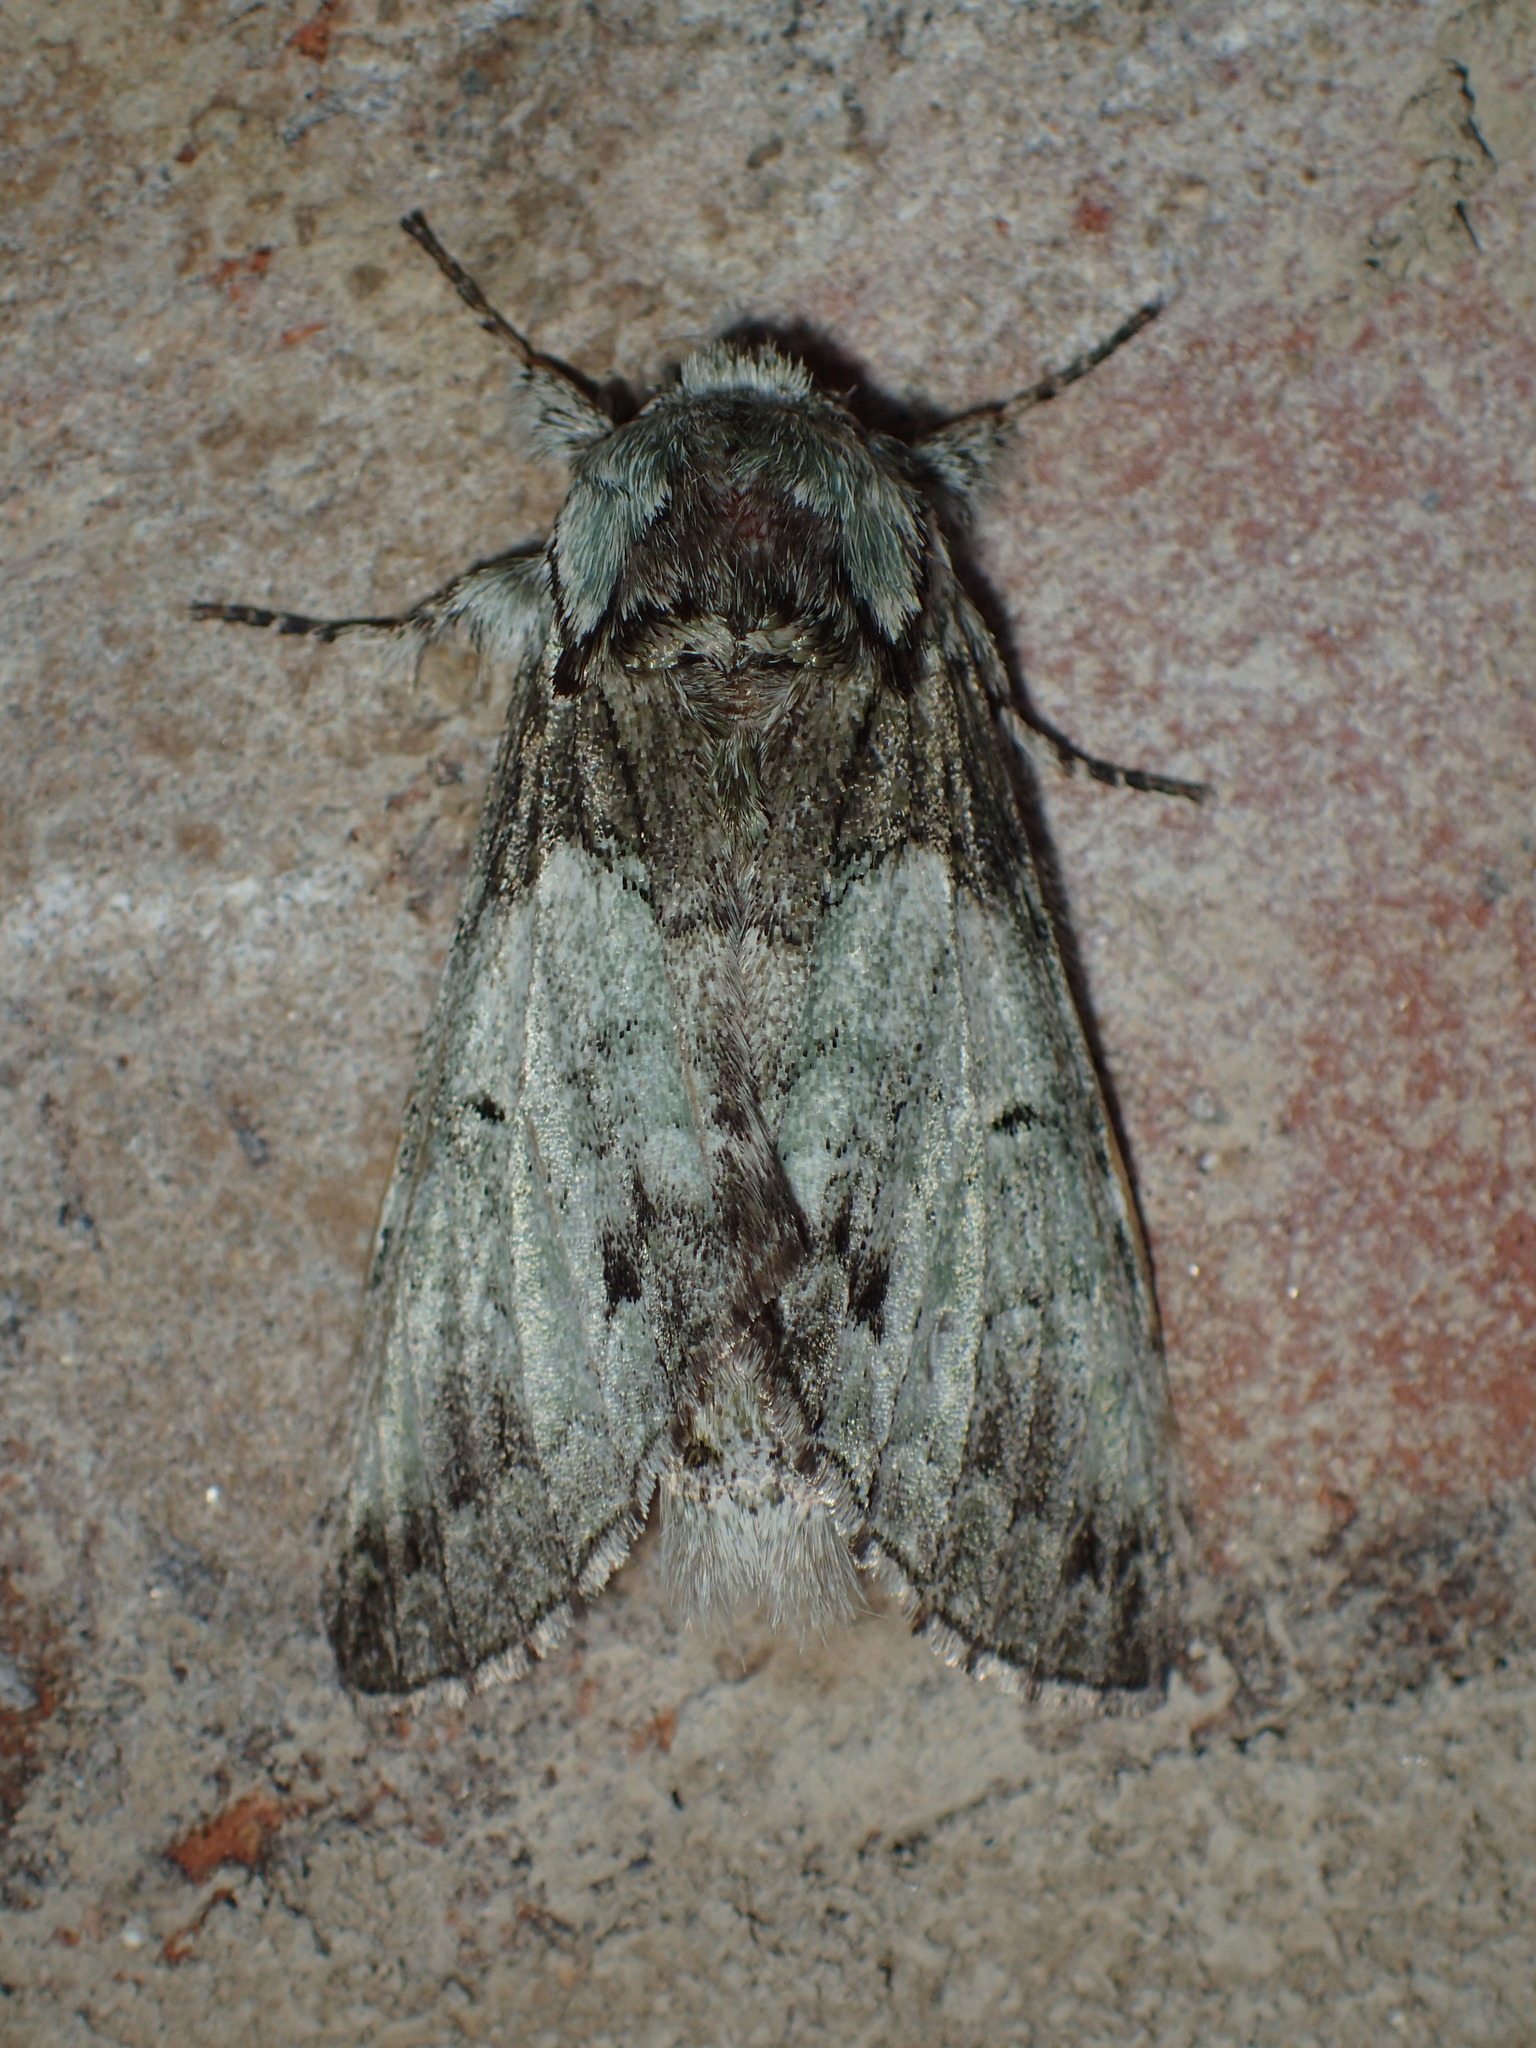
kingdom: Animalia
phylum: Arthropoda
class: Insecta
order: Lepidoptera
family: Notodontidae
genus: Macrurocampa
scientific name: Macrurocampa marthesia
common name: Mottled prominent
